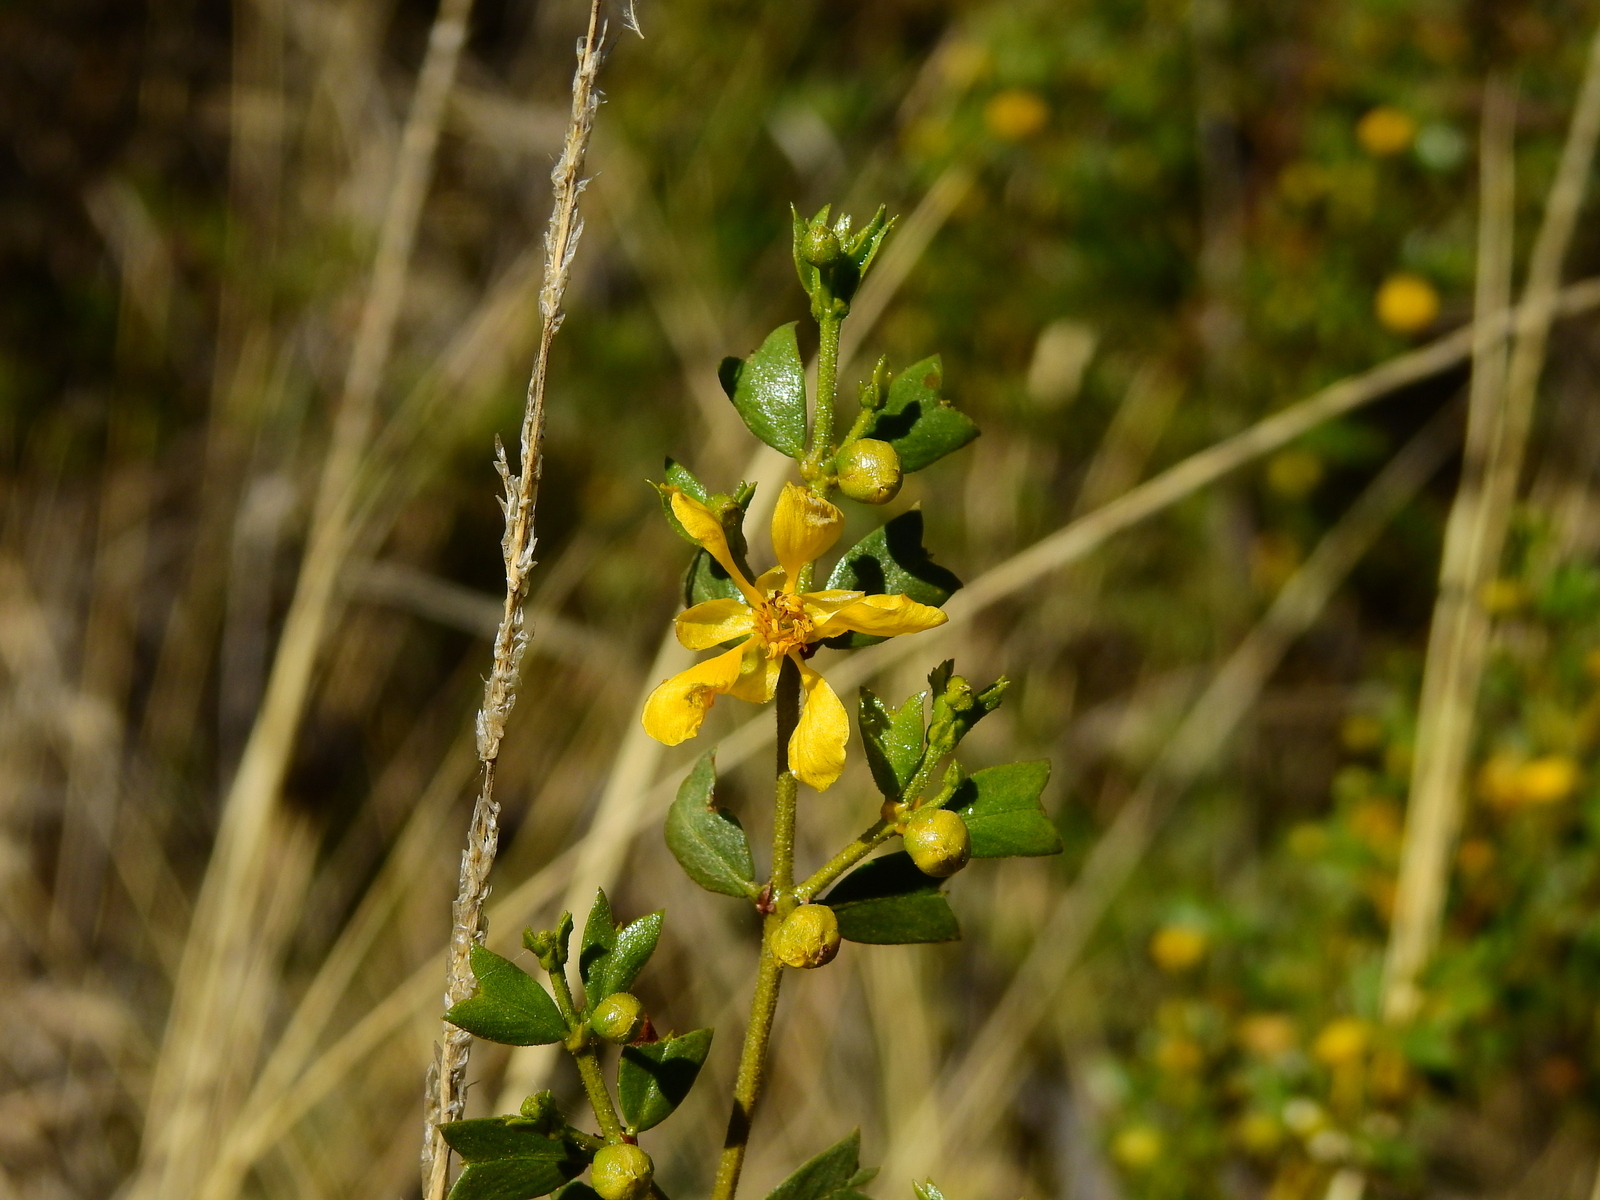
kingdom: Plantae
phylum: Tracheophyta
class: Magnoliopsida
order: Zygophyllales
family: Zygophyllaceae
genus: Larrea
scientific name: Larrea cuneifolia
